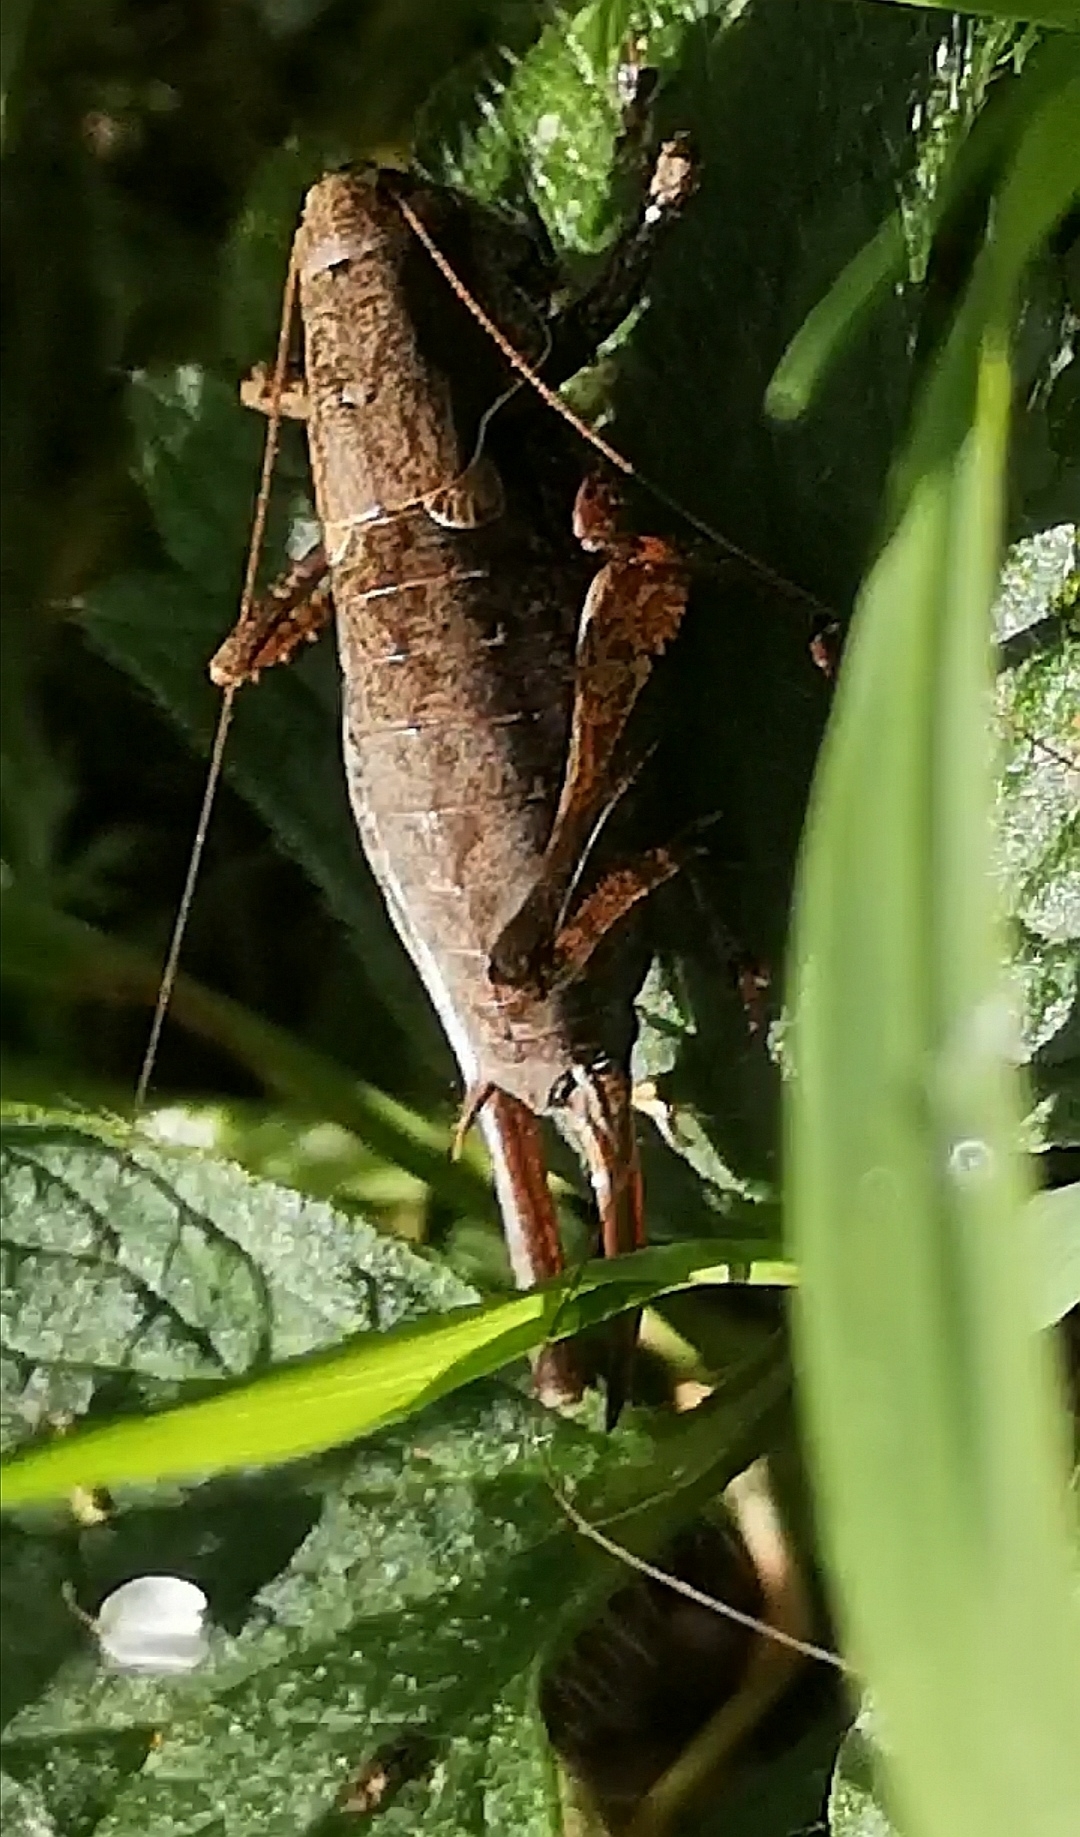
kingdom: Animalia
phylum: Arthropoda
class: Insecta
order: Orthoptera
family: Tettigoniidae
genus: Pholidoptera
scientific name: Pholidoptera griseoaptera
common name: Dark bush-cricket
